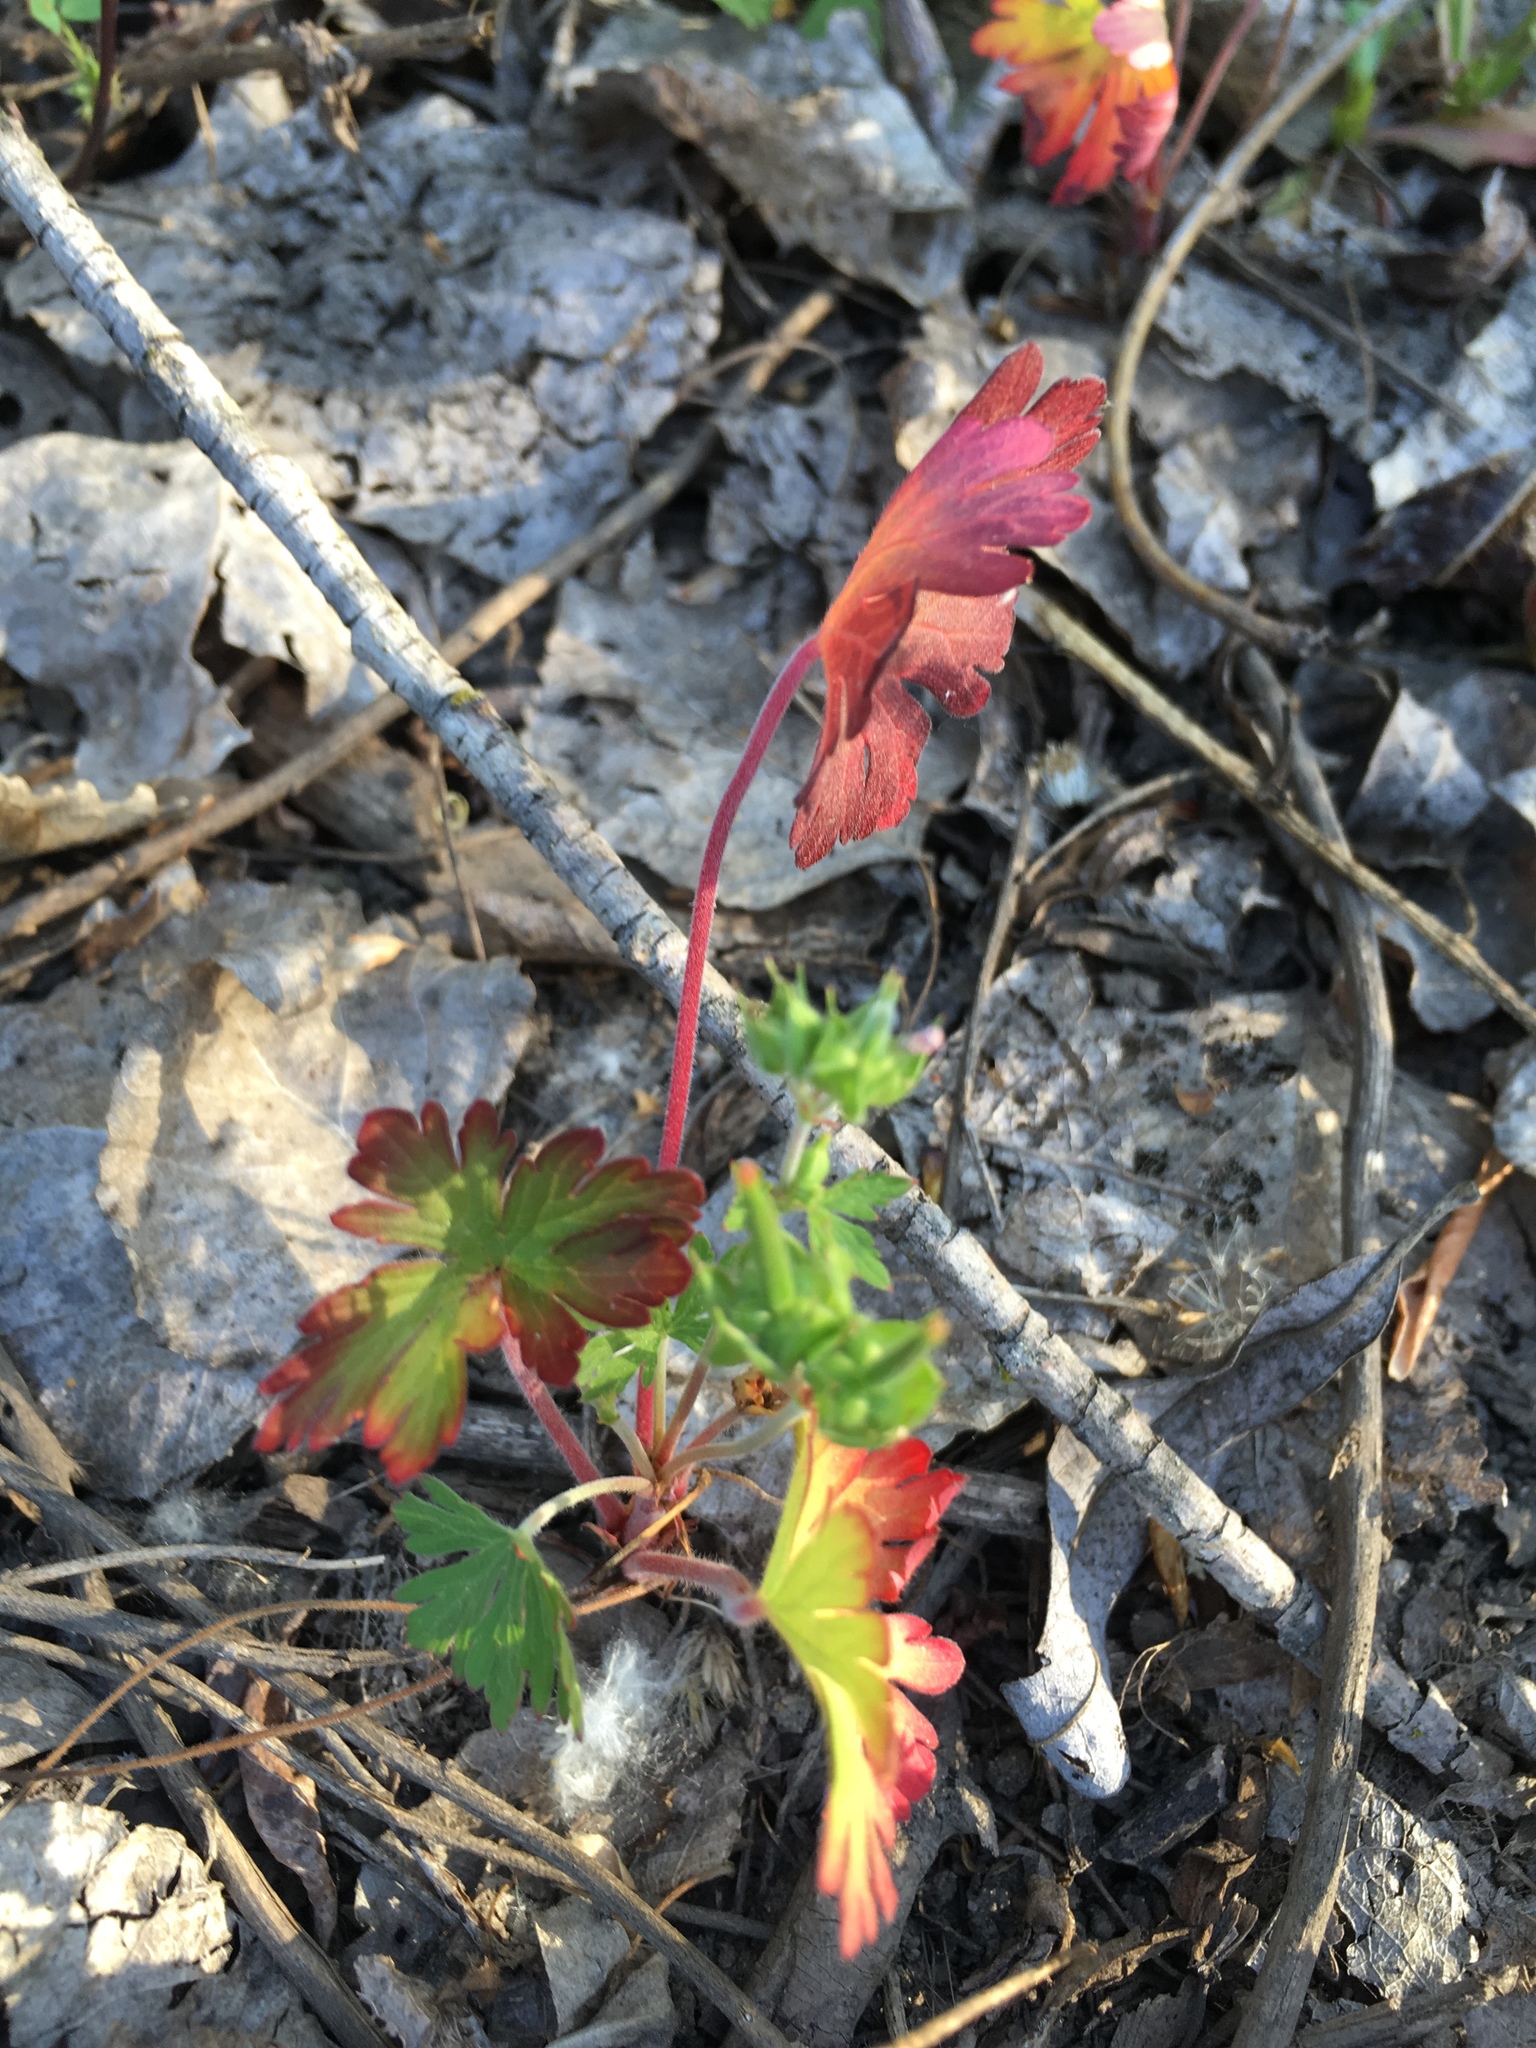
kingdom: Plantae
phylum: Tracheophyta
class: Magnoliopsida
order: Geraniales
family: Geraniaceae
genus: Geranium
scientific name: Geranium carolinianum
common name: Carolina crane's-bill
